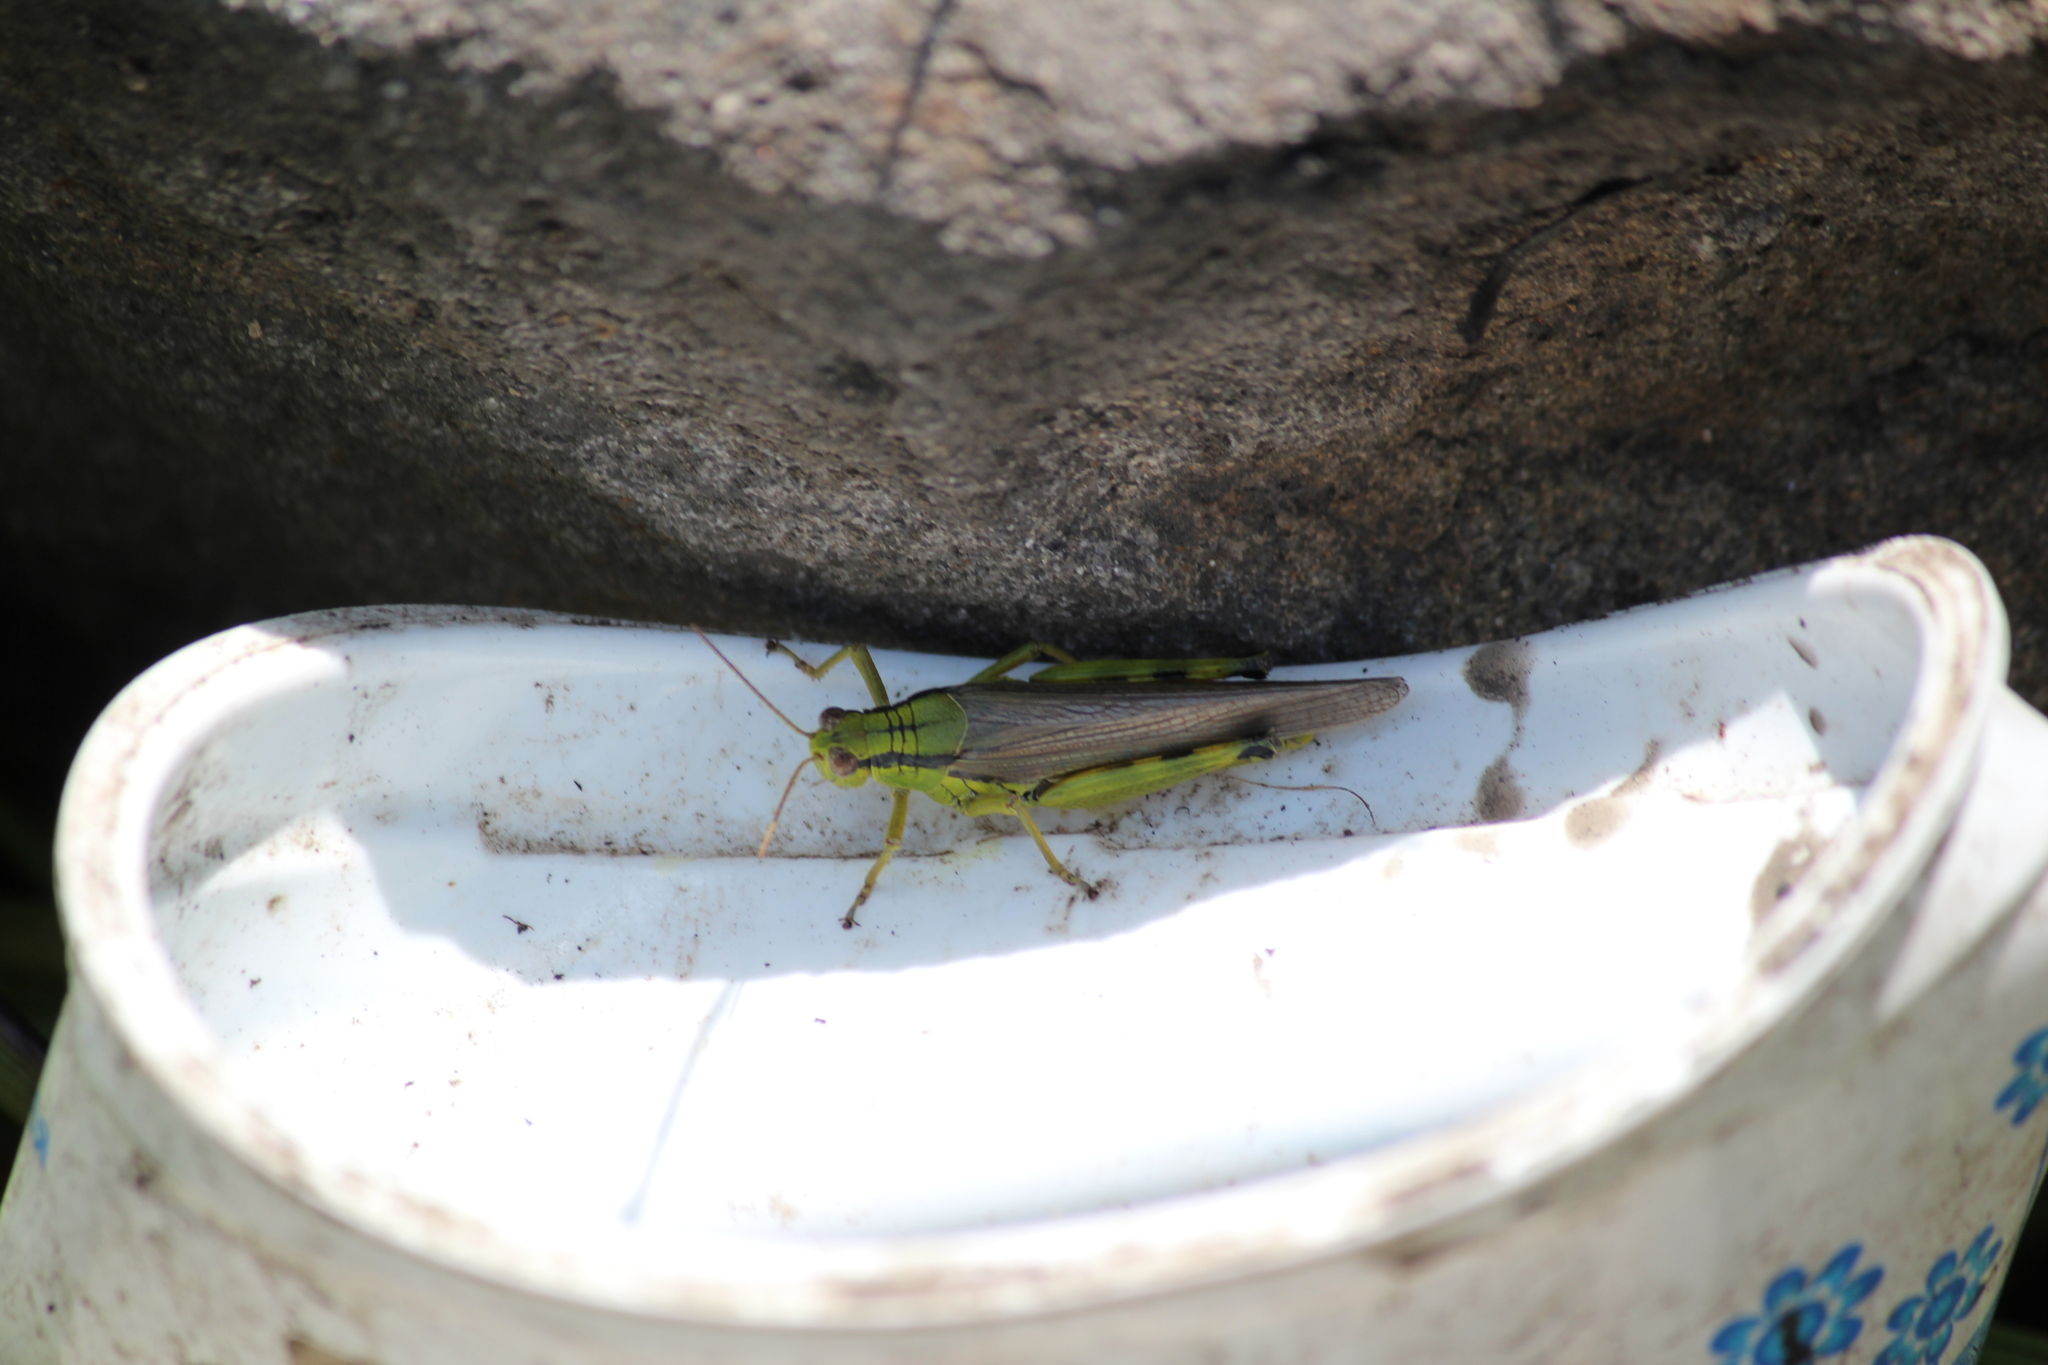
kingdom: Animalia
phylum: Arthropoda
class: Insecta
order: Orthoptera
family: Acrididae
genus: Confusacris
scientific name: Confusacris longipennis
